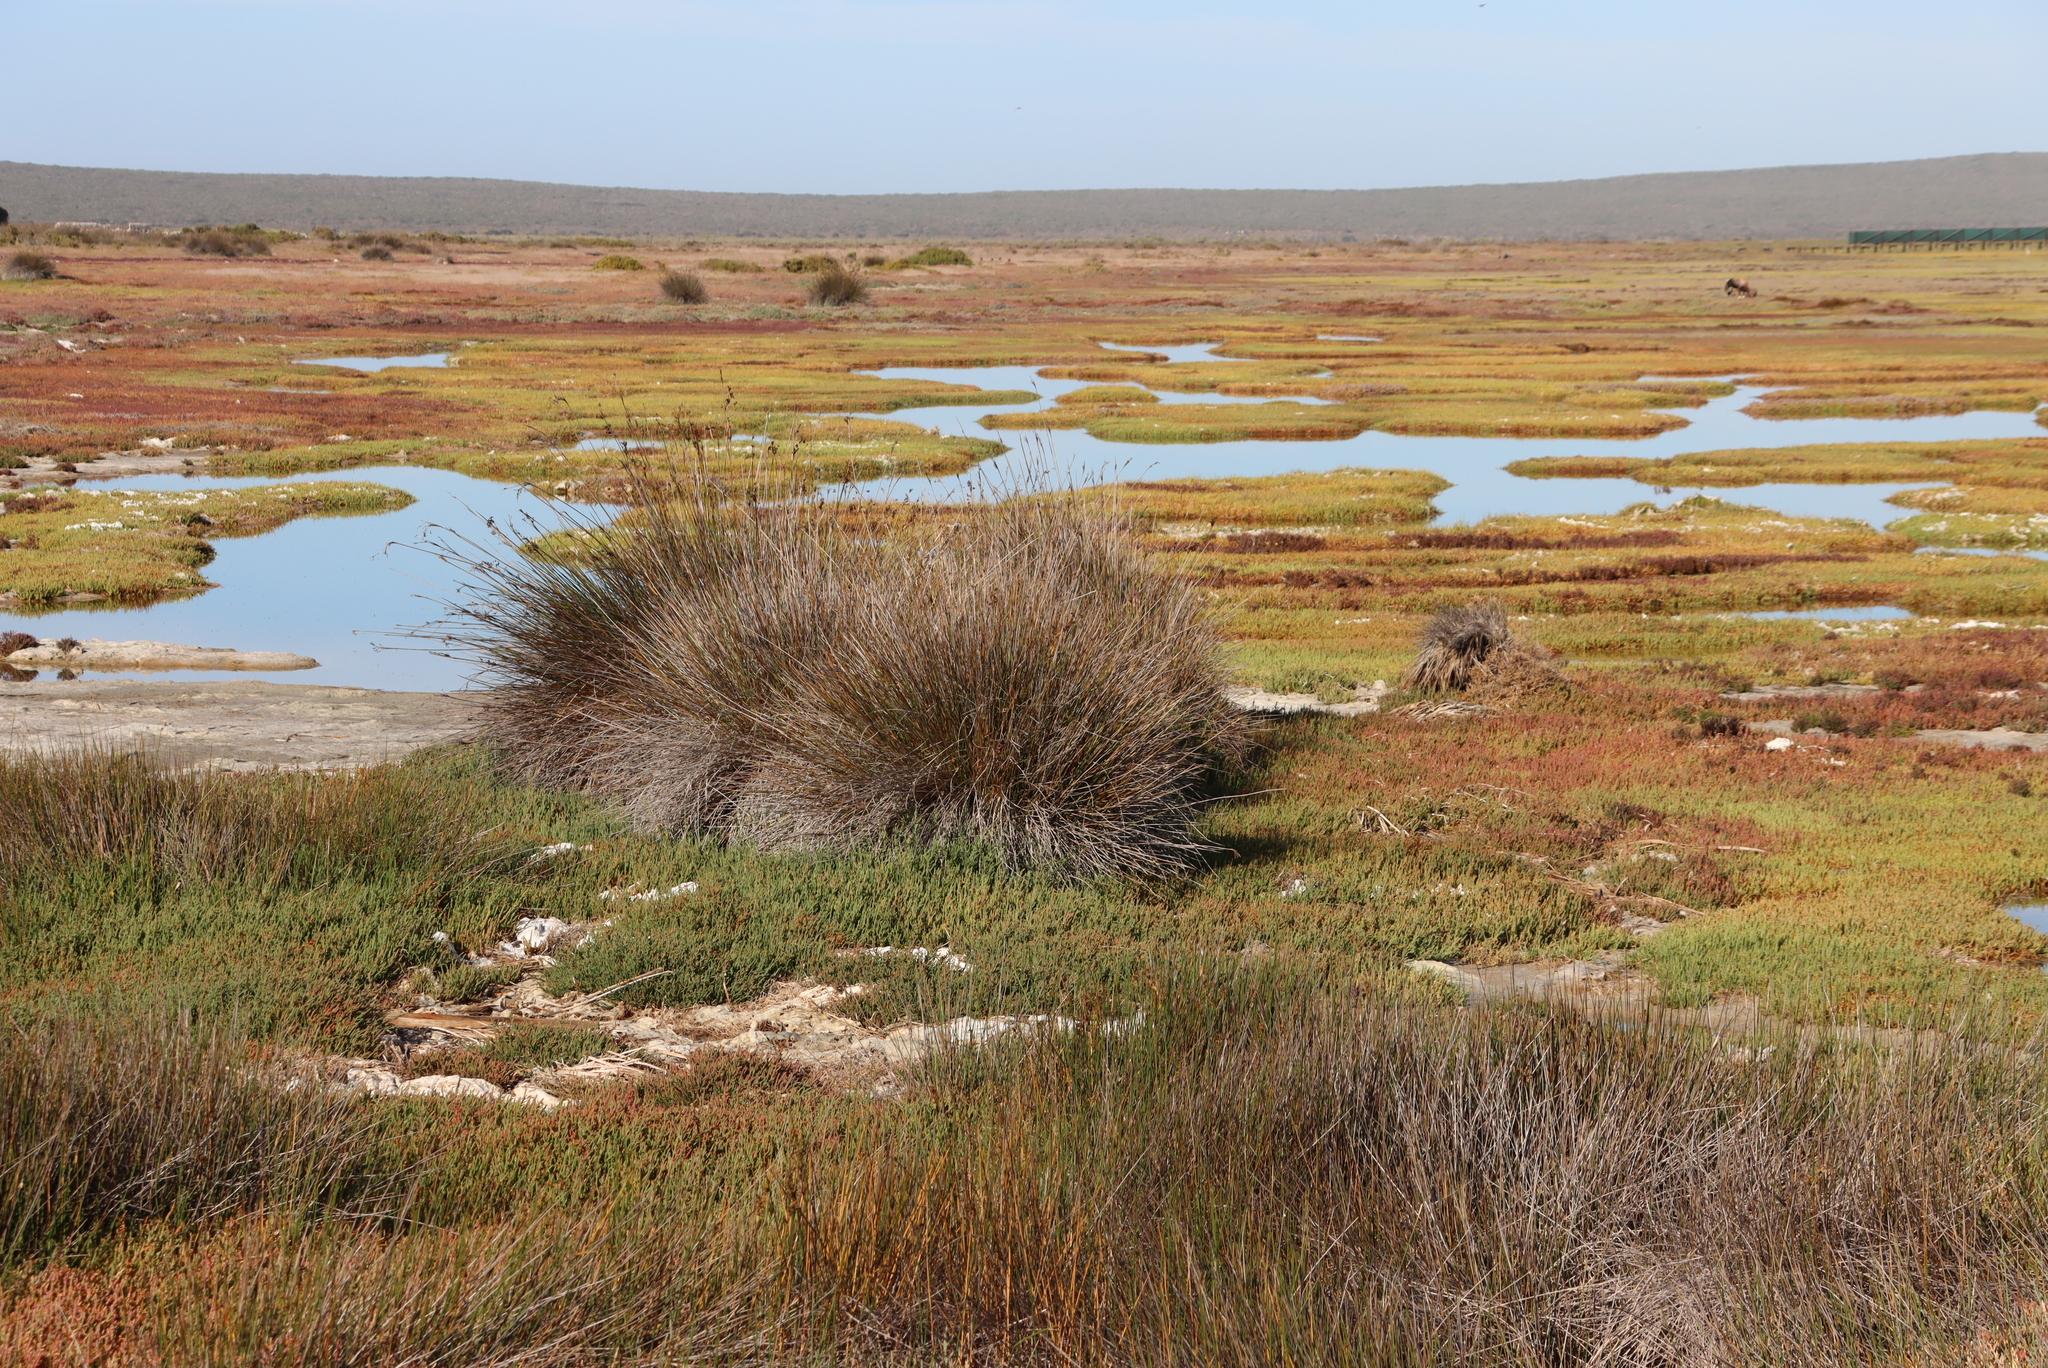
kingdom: Plantae
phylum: Tracheophyta
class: Liliopsida
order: Poales
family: Juncaceae
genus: Juncus
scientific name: Juncus acutus
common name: Sharp rush
